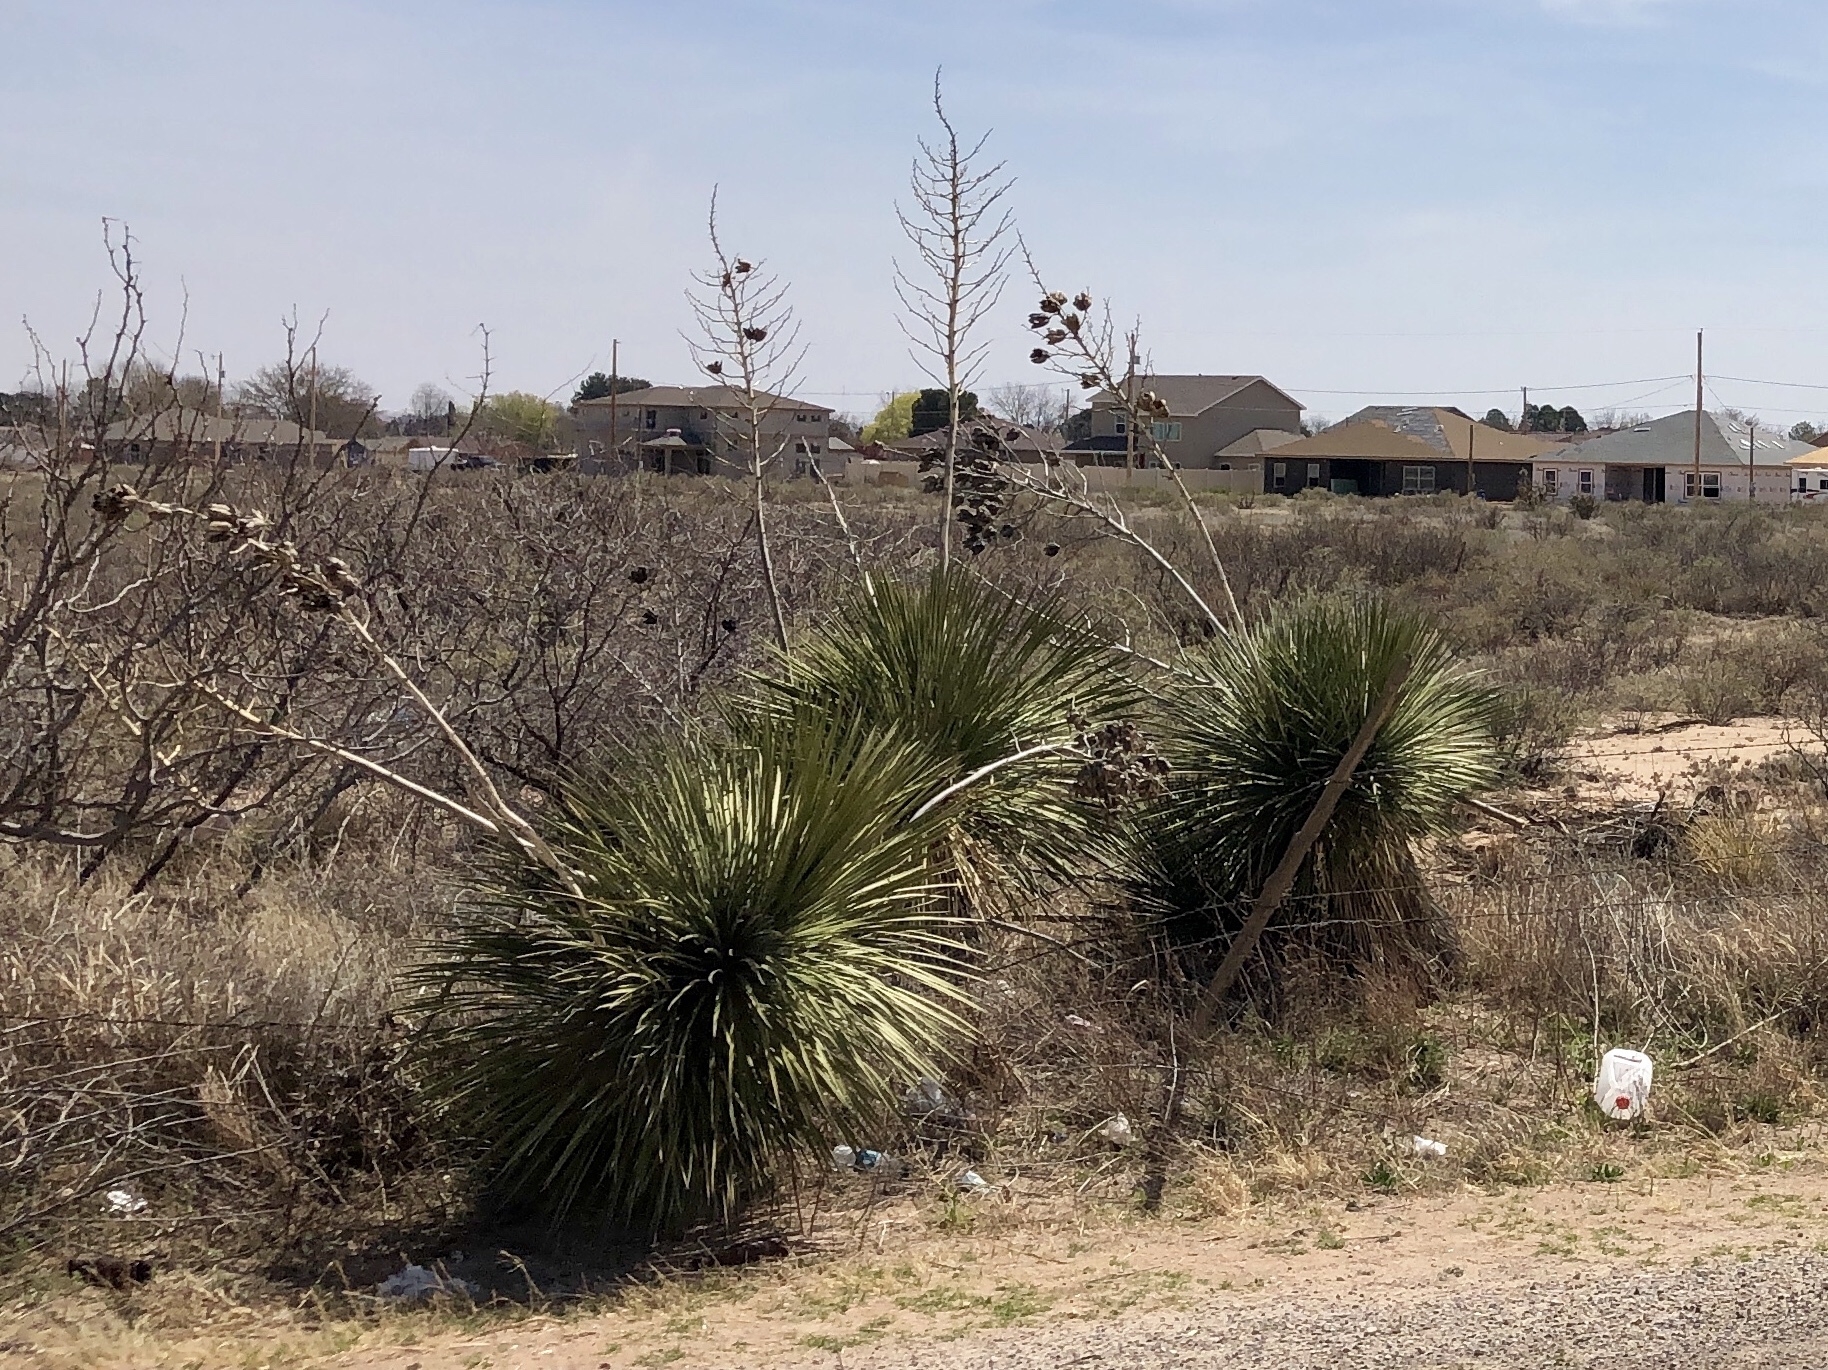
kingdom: Plantae
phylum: Tracheophyta
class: Liliopsida
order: Asparagales
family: Asparagaceae
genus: Yucca
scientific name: Yucca elata
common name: Palmella
